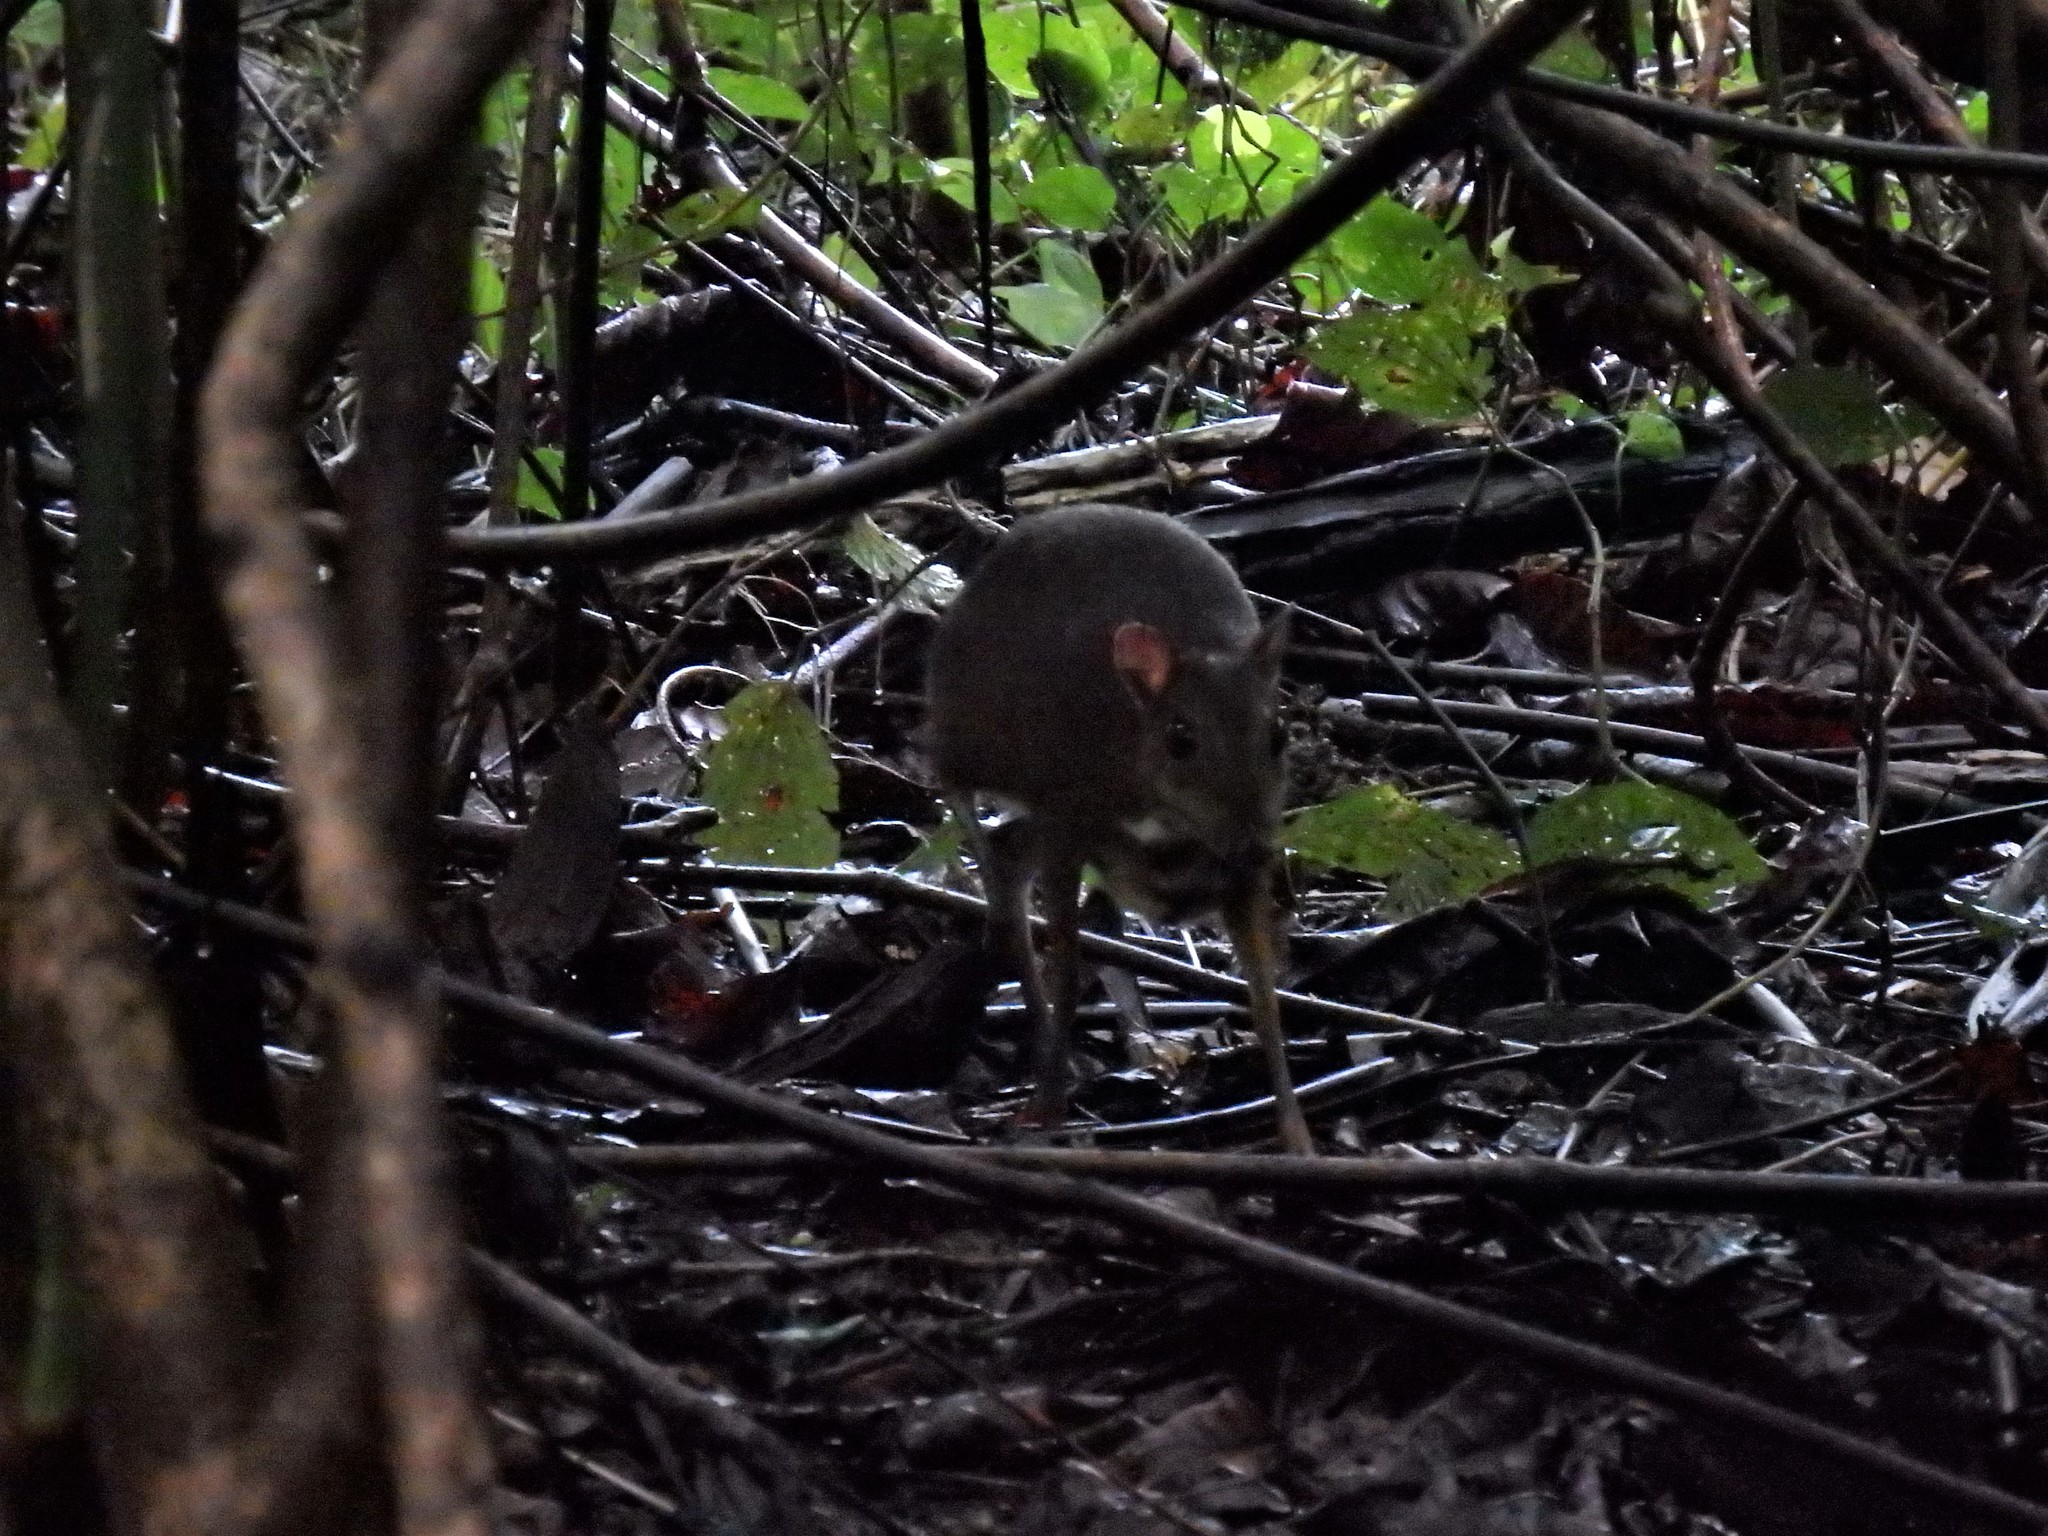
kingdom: Animalia
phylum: Chordata
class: Mammalia
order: Artiodactyla
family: Tragulidae
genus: Tragulus
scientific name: Tragulus kanchil
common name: Lesser mouse-deer
